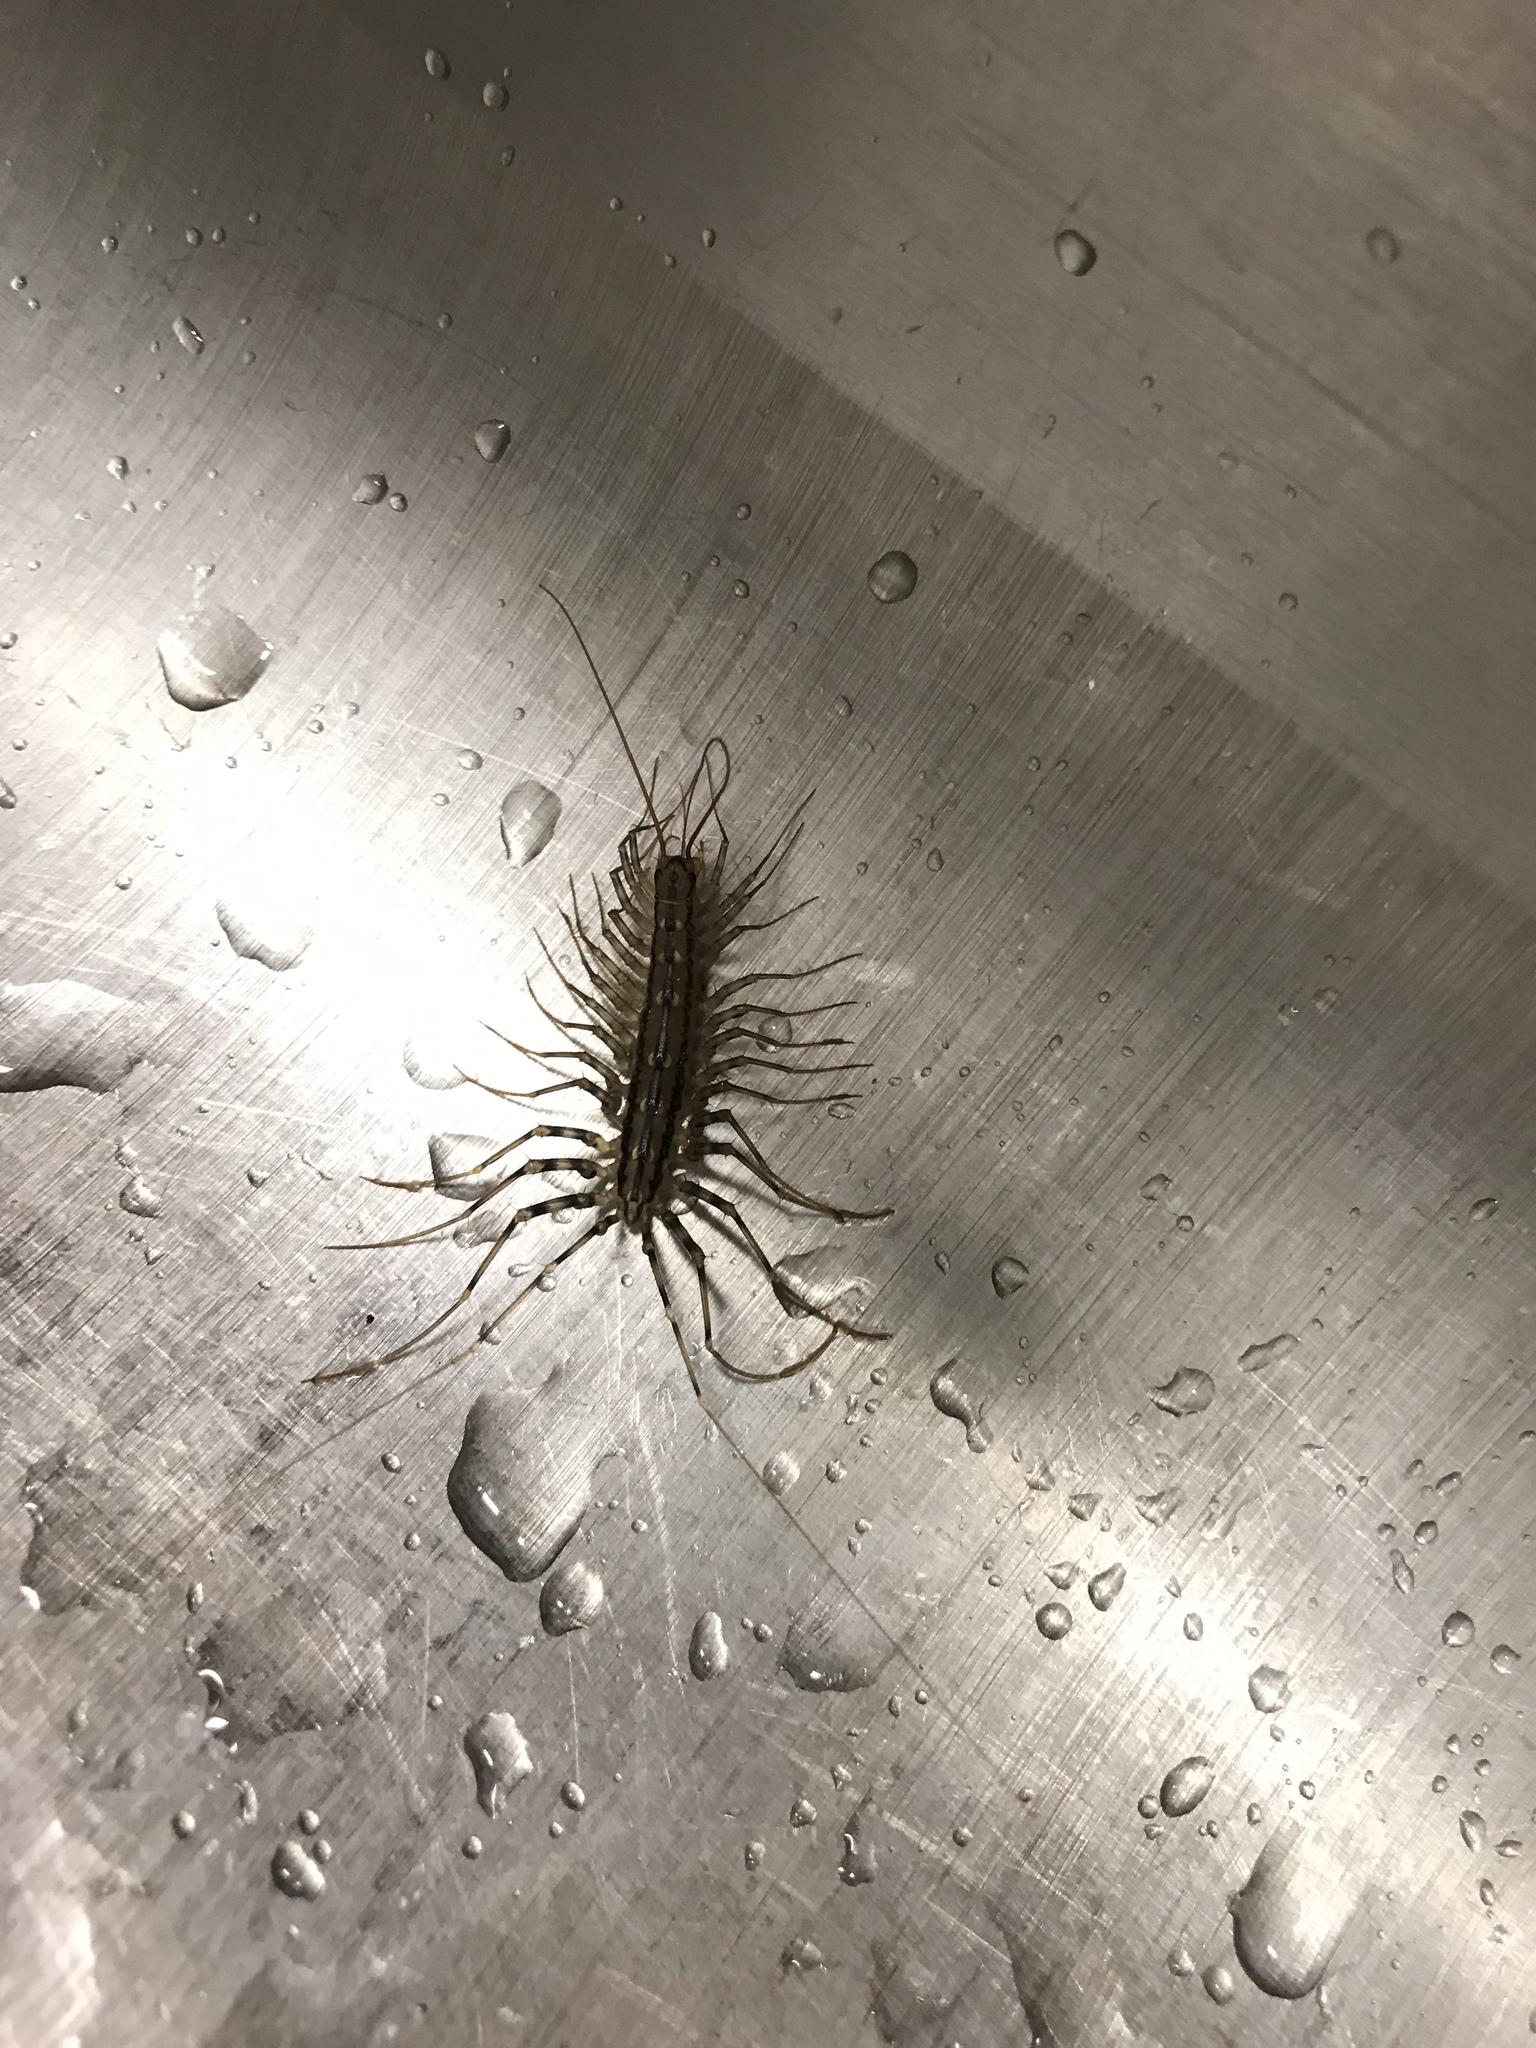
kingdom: Animalia
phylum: Arthropoda
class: Chilopoda
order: Scutigeromorpha
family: Scutigeridae
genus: Scutigera
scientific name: Scutigera coleoptrata
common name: House centipede
